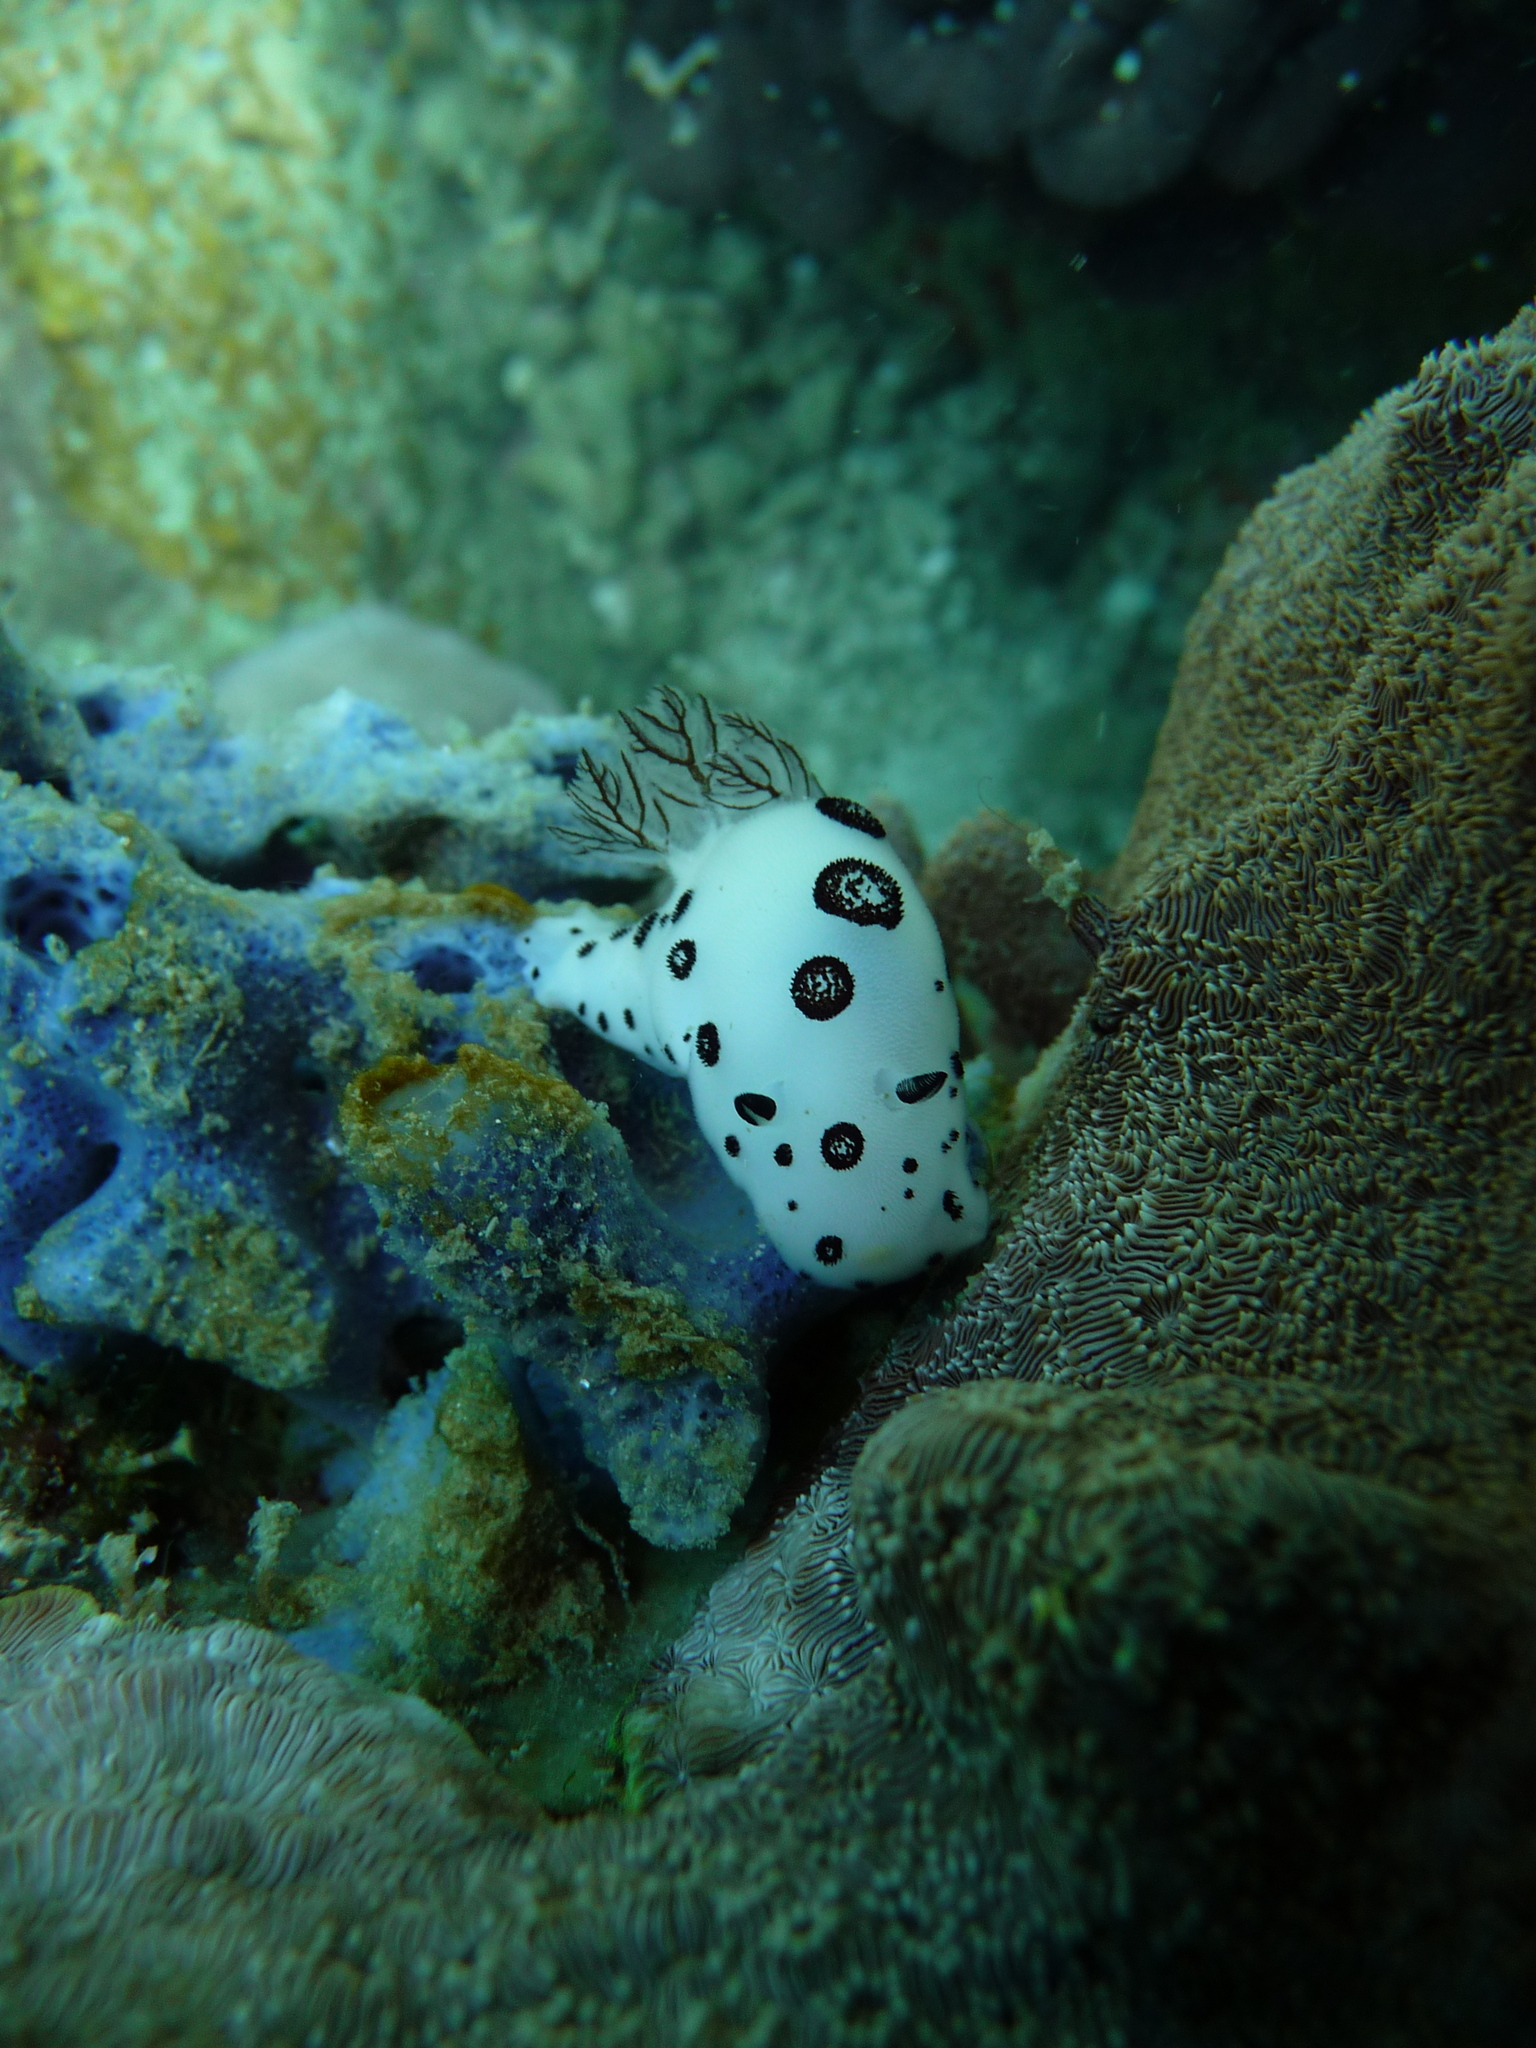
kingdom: Animalia
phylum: Mollusca
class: Gastropoda
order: Nudibranchia
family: Discodorididae
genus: Jorunna
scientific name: Jorunna funebris
